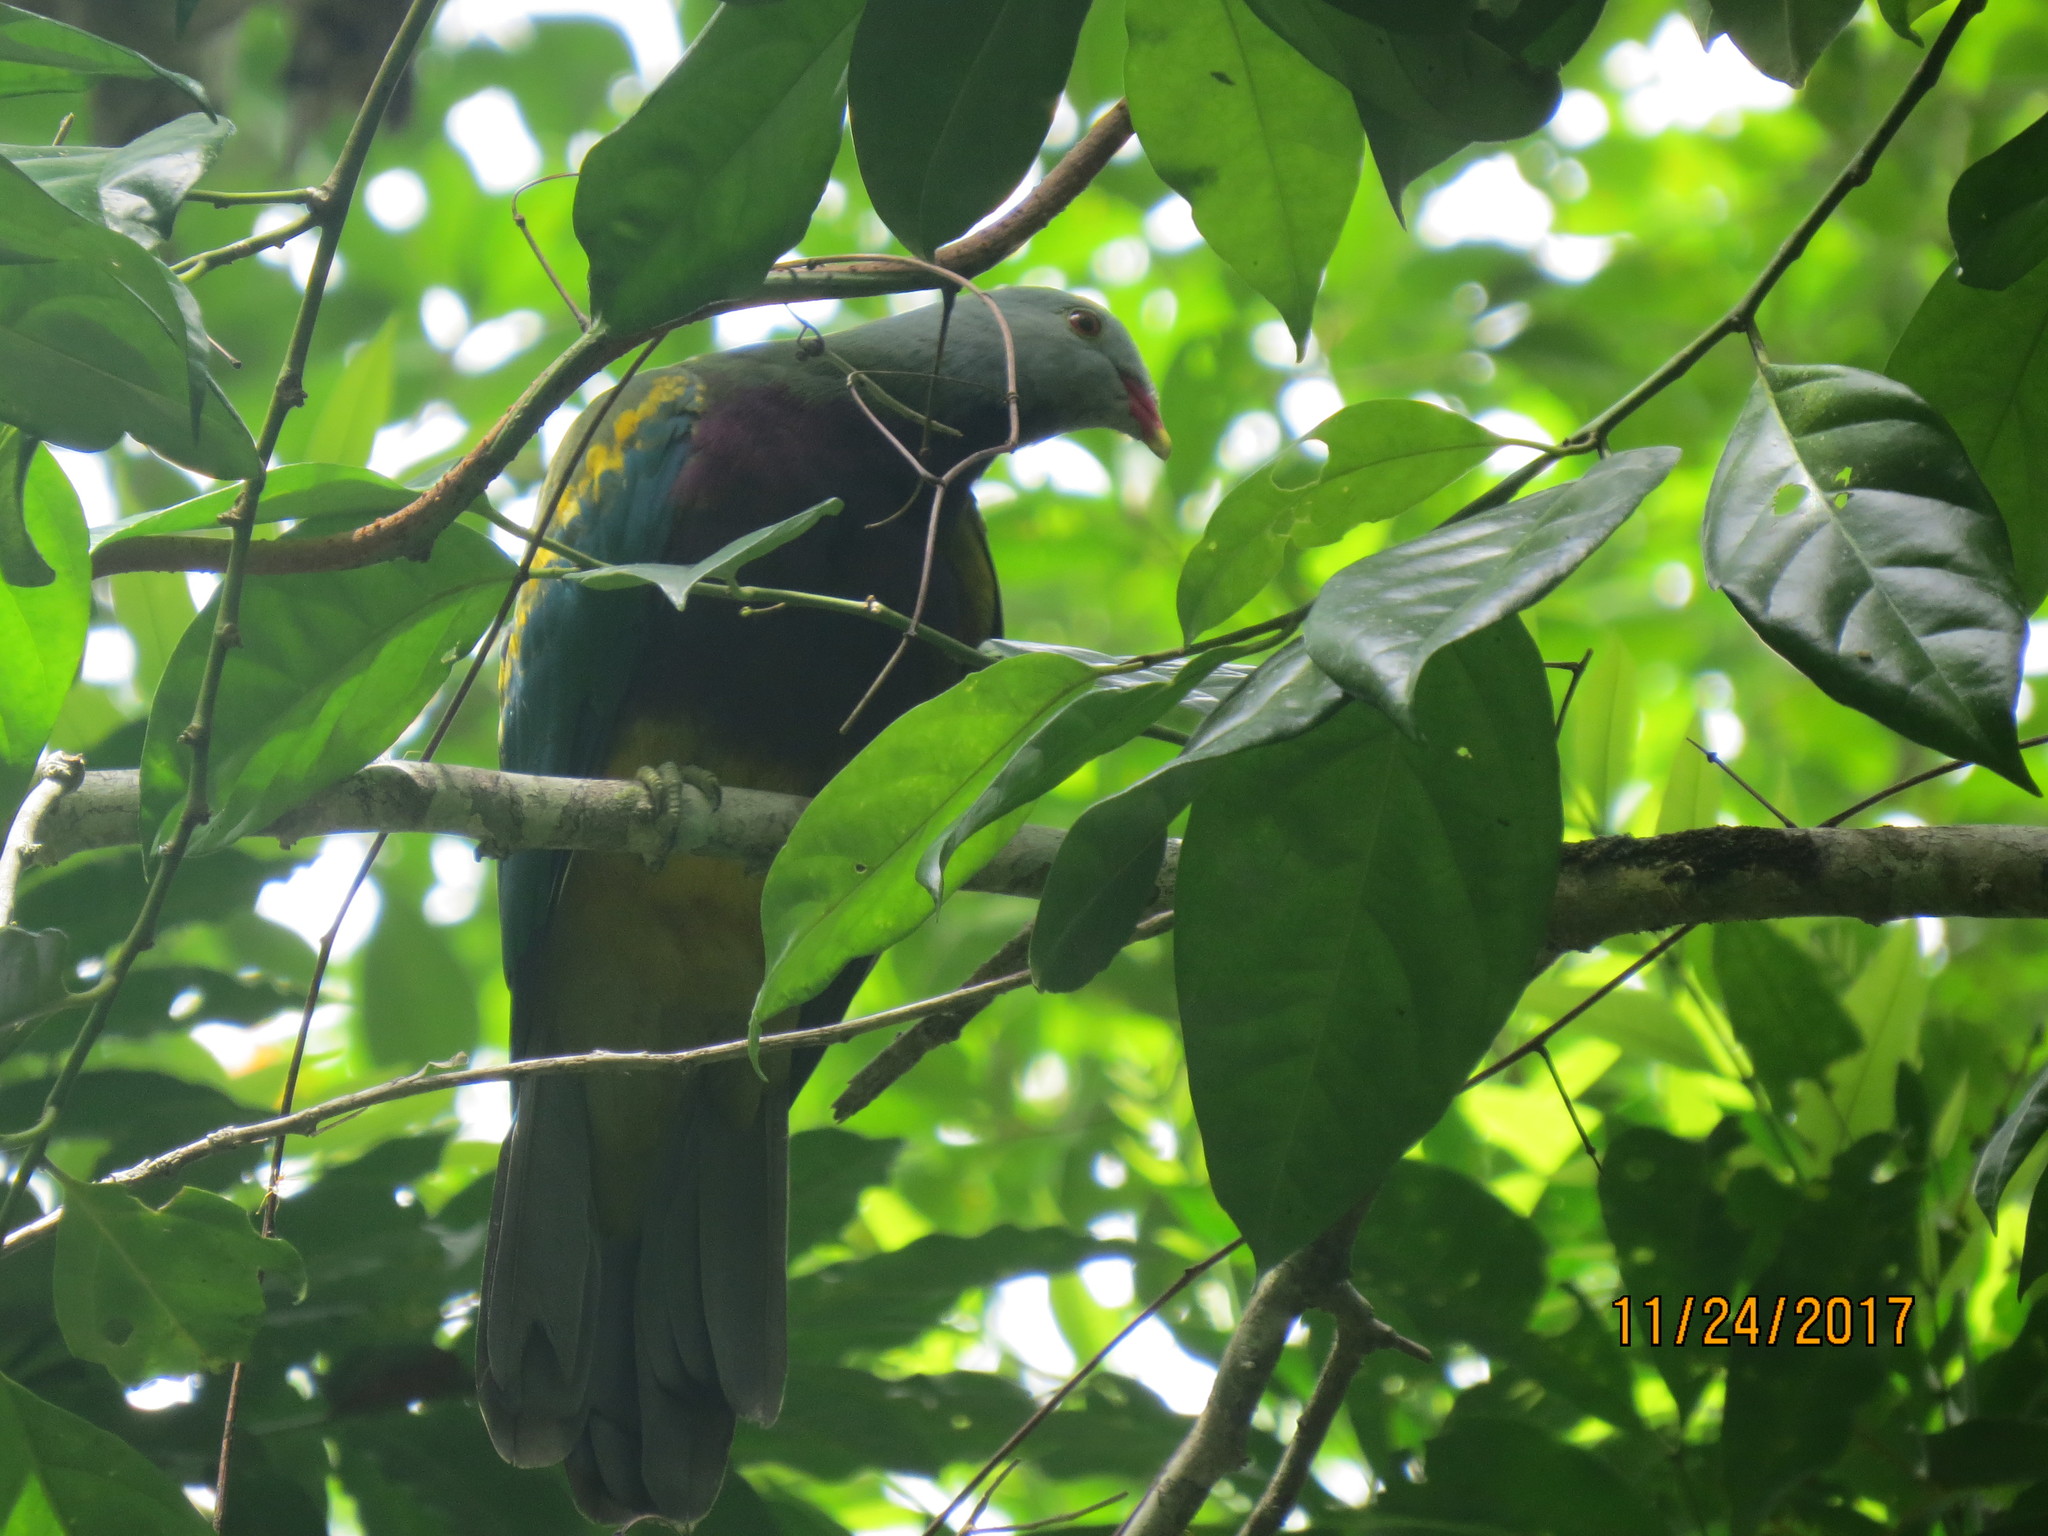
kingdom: Animalia
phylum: Chordata
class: Aves
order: Columbiformes
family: Columbidae
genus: Ptilinopus
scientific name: Ptilinopus magnificus
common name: Wompoo fruit dove
